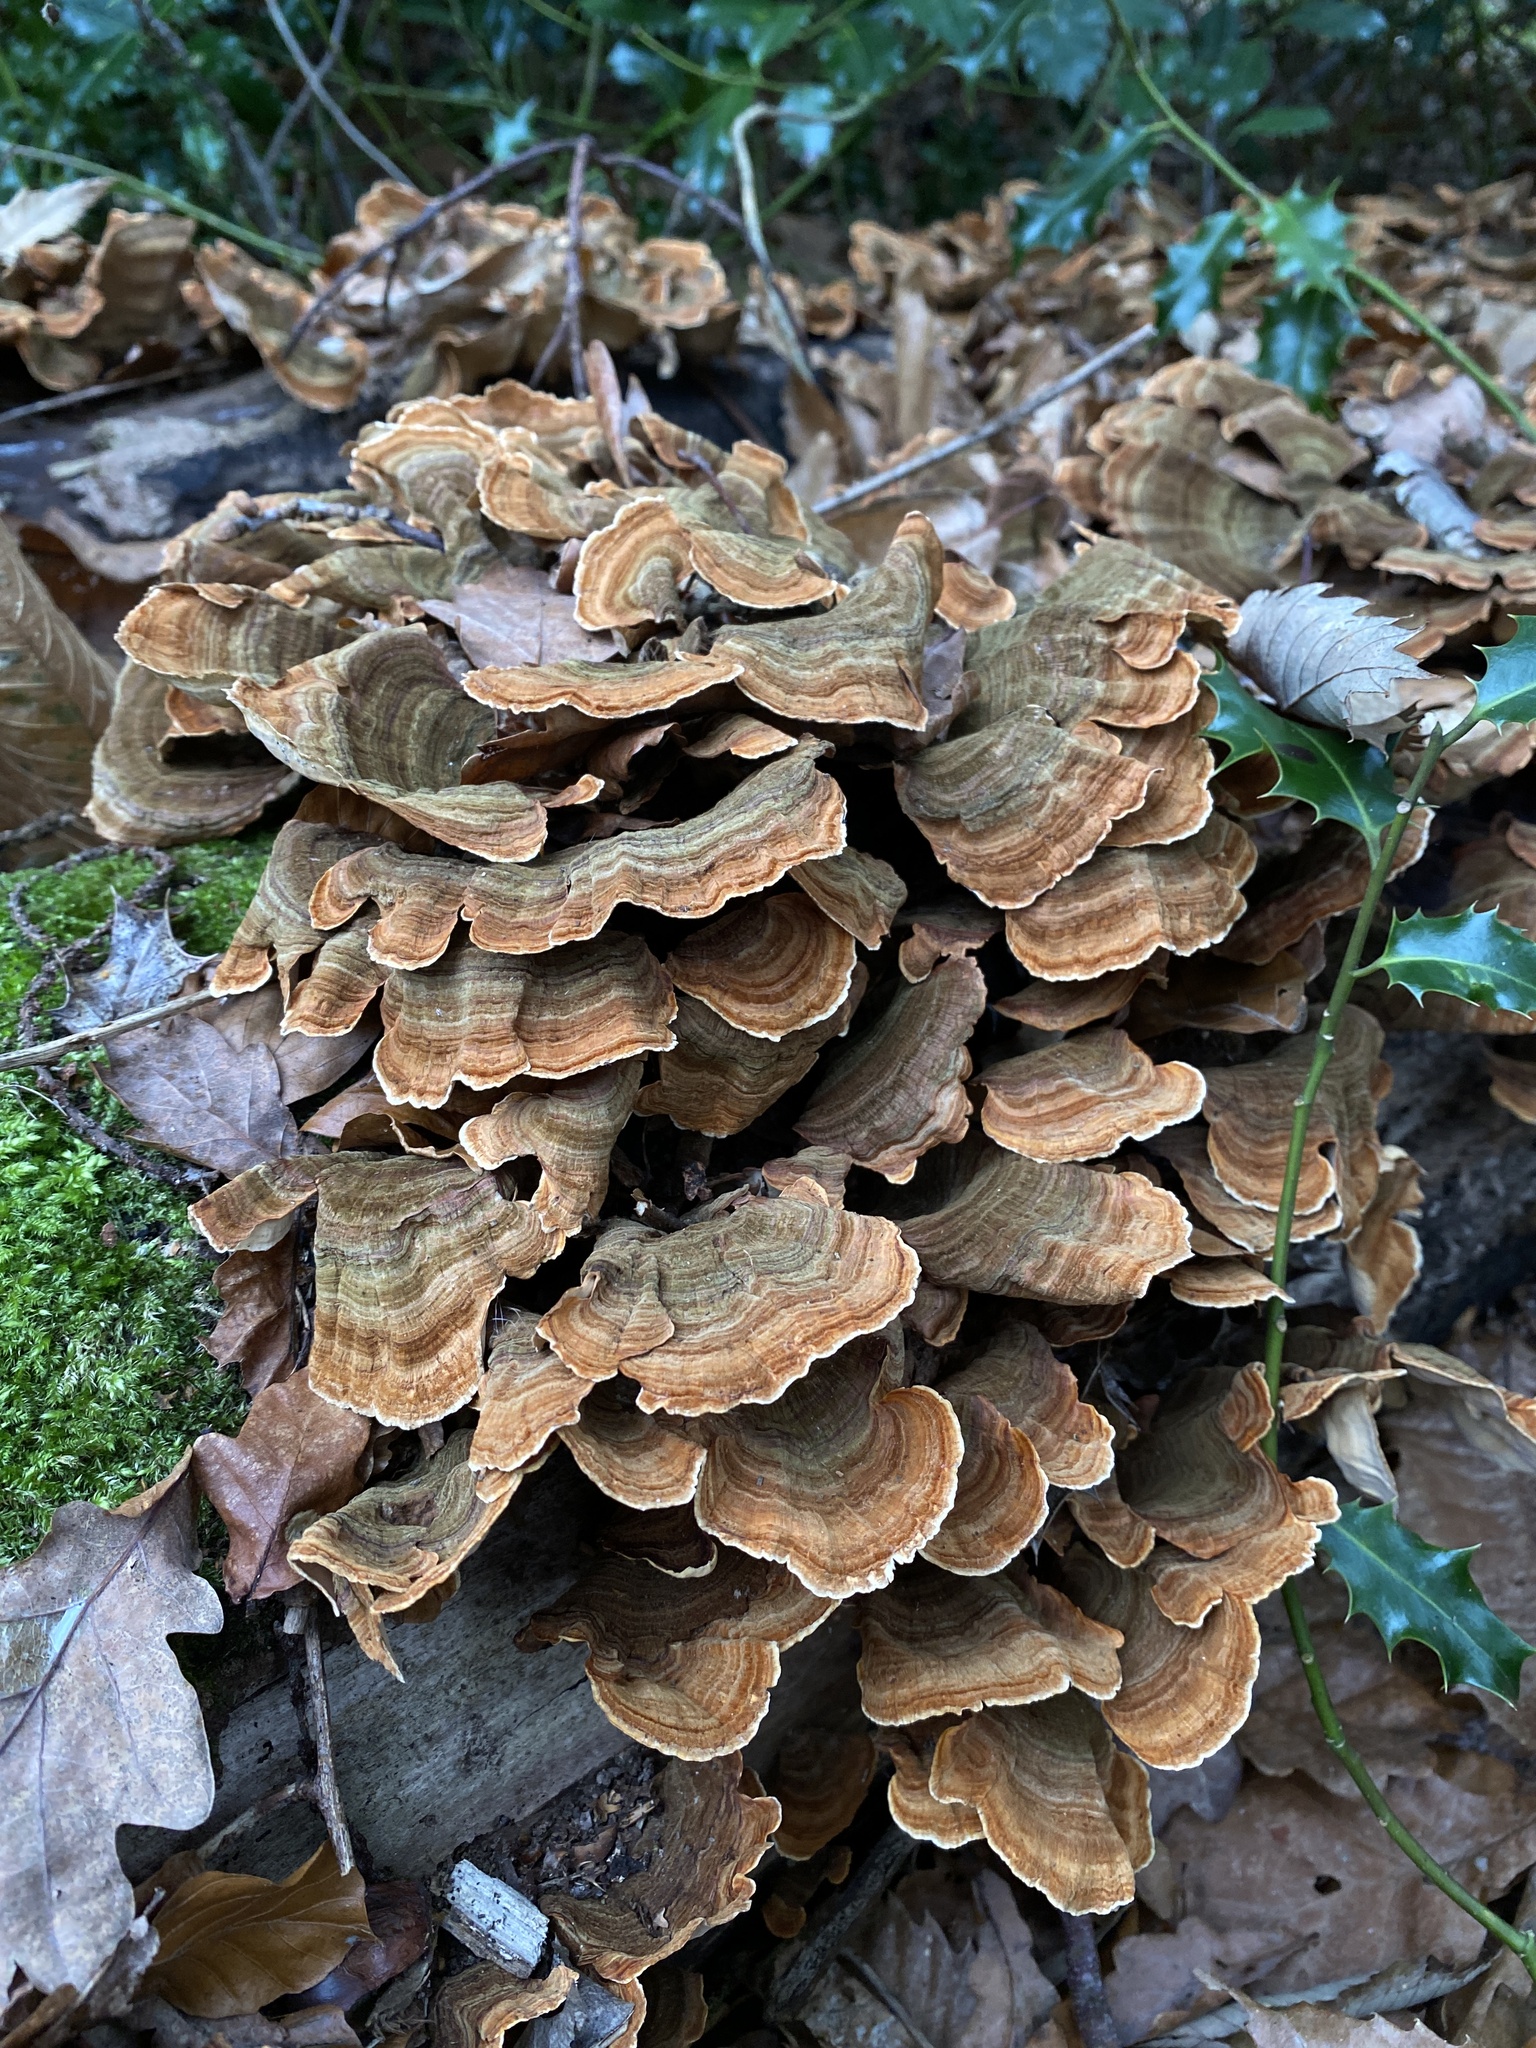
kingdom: Fungi
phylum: Basidiomycota
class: Agaricomycetes
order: Polyporales
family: Polyporaceae
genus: Trametes
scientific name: Trametes versicolor
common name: Turkeytail
